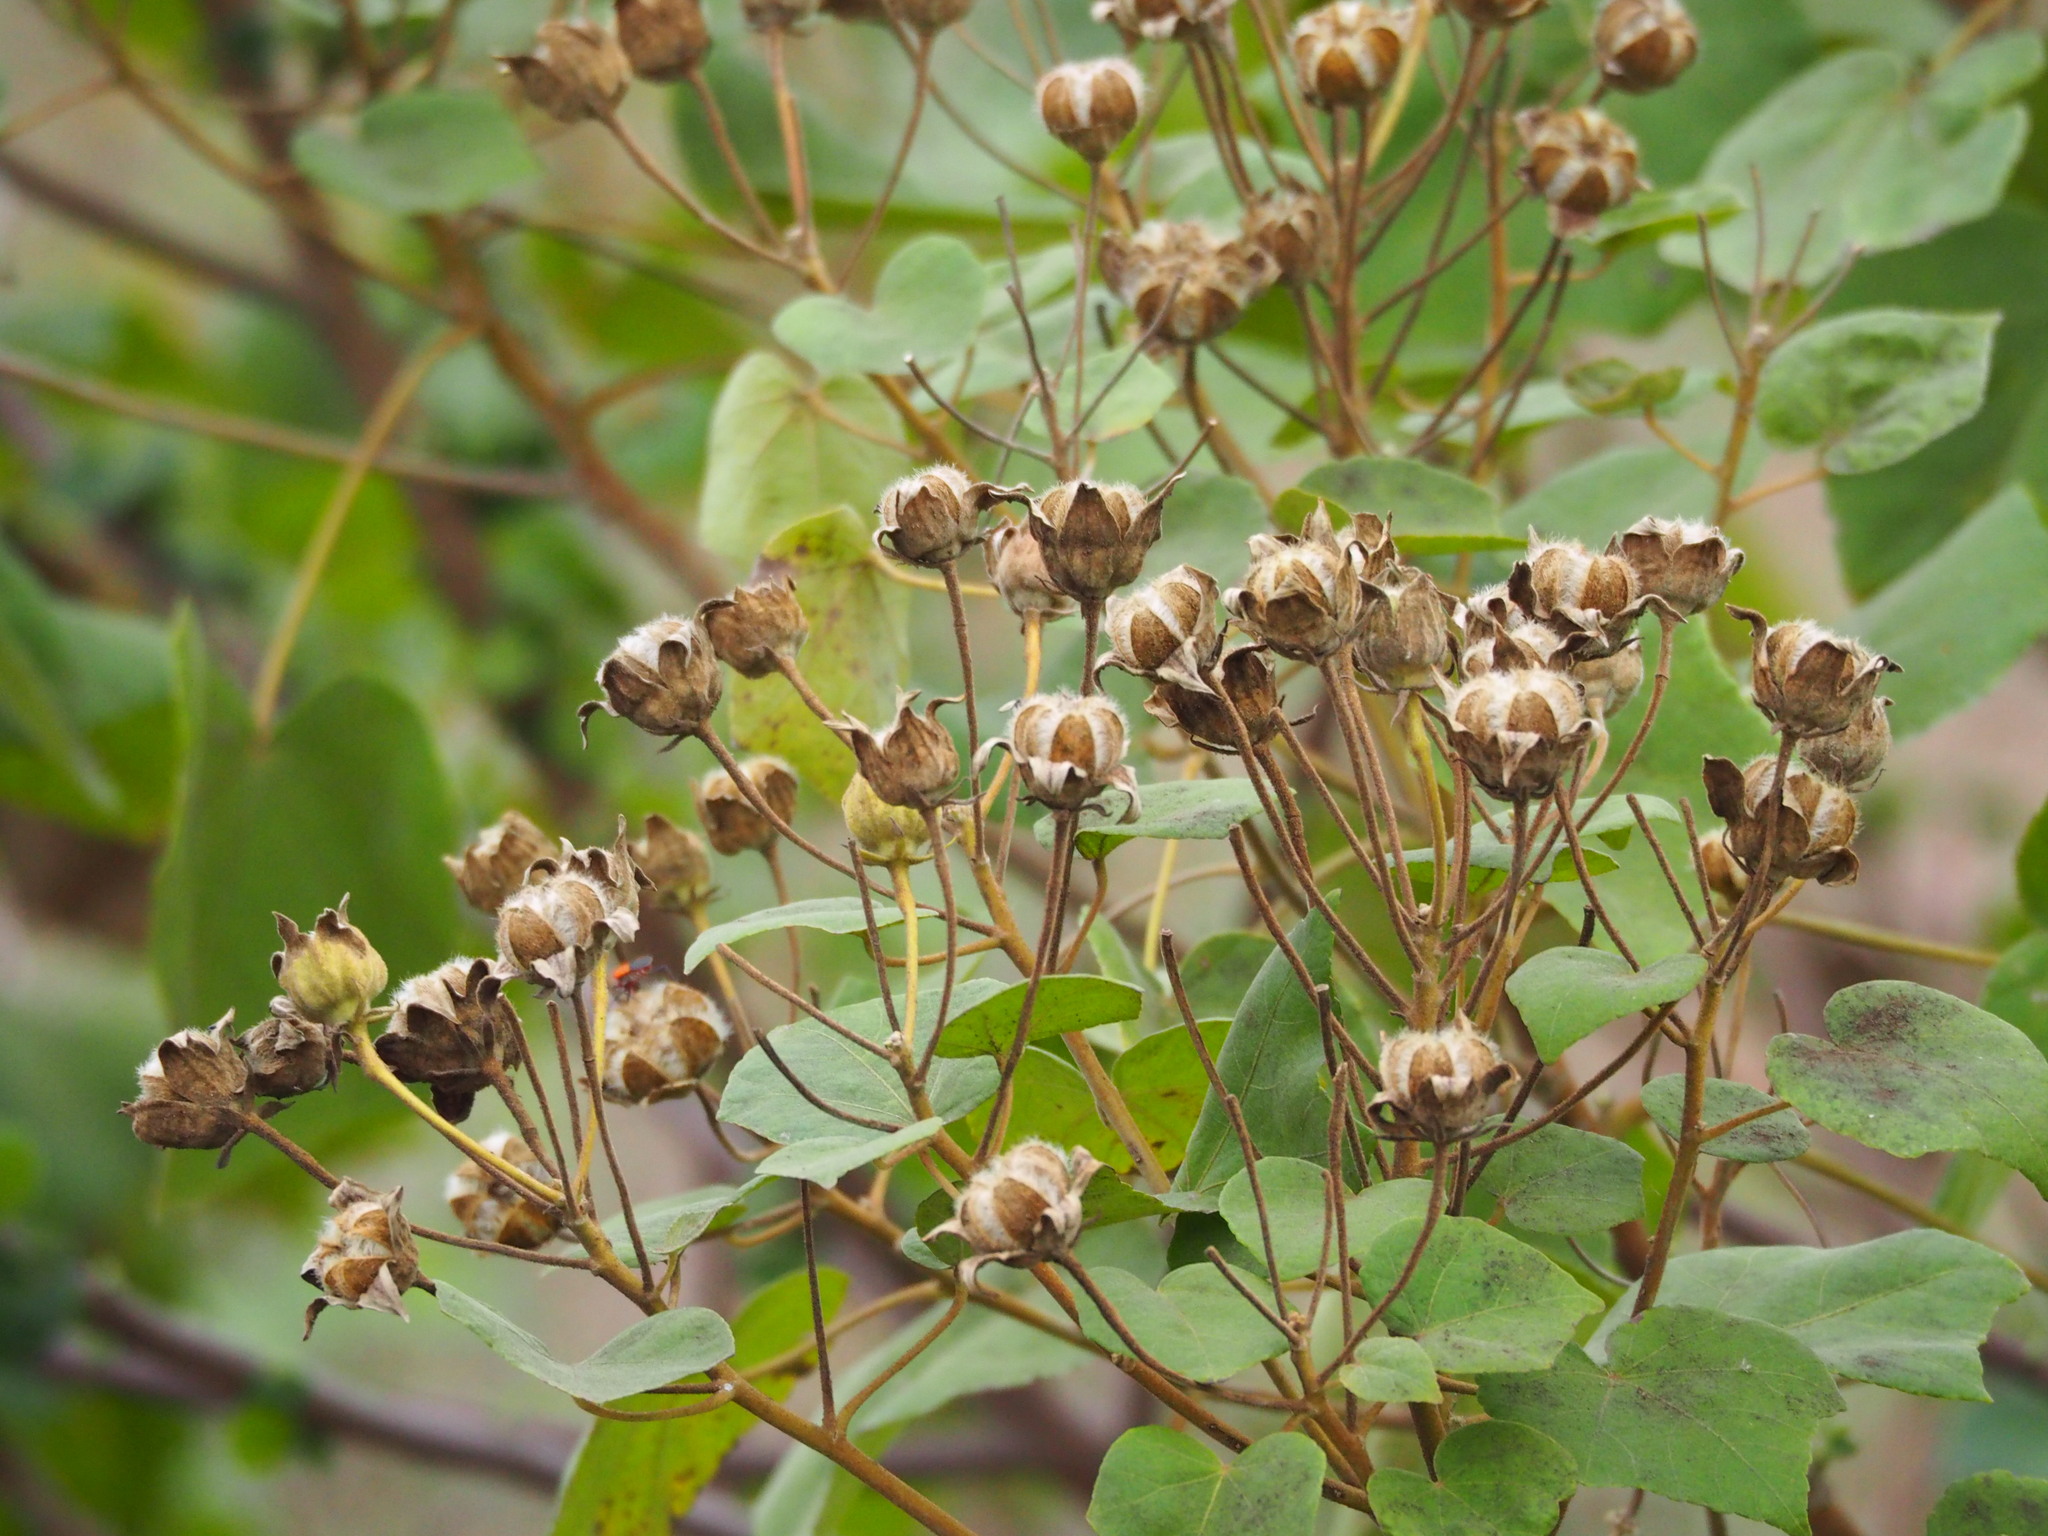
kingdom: Plantae
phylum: Tracheophyta
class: Magnoliopsida
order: Malvales
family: Malvaceae
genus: Hibiscus
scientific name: Hibiscus taiwanensis
